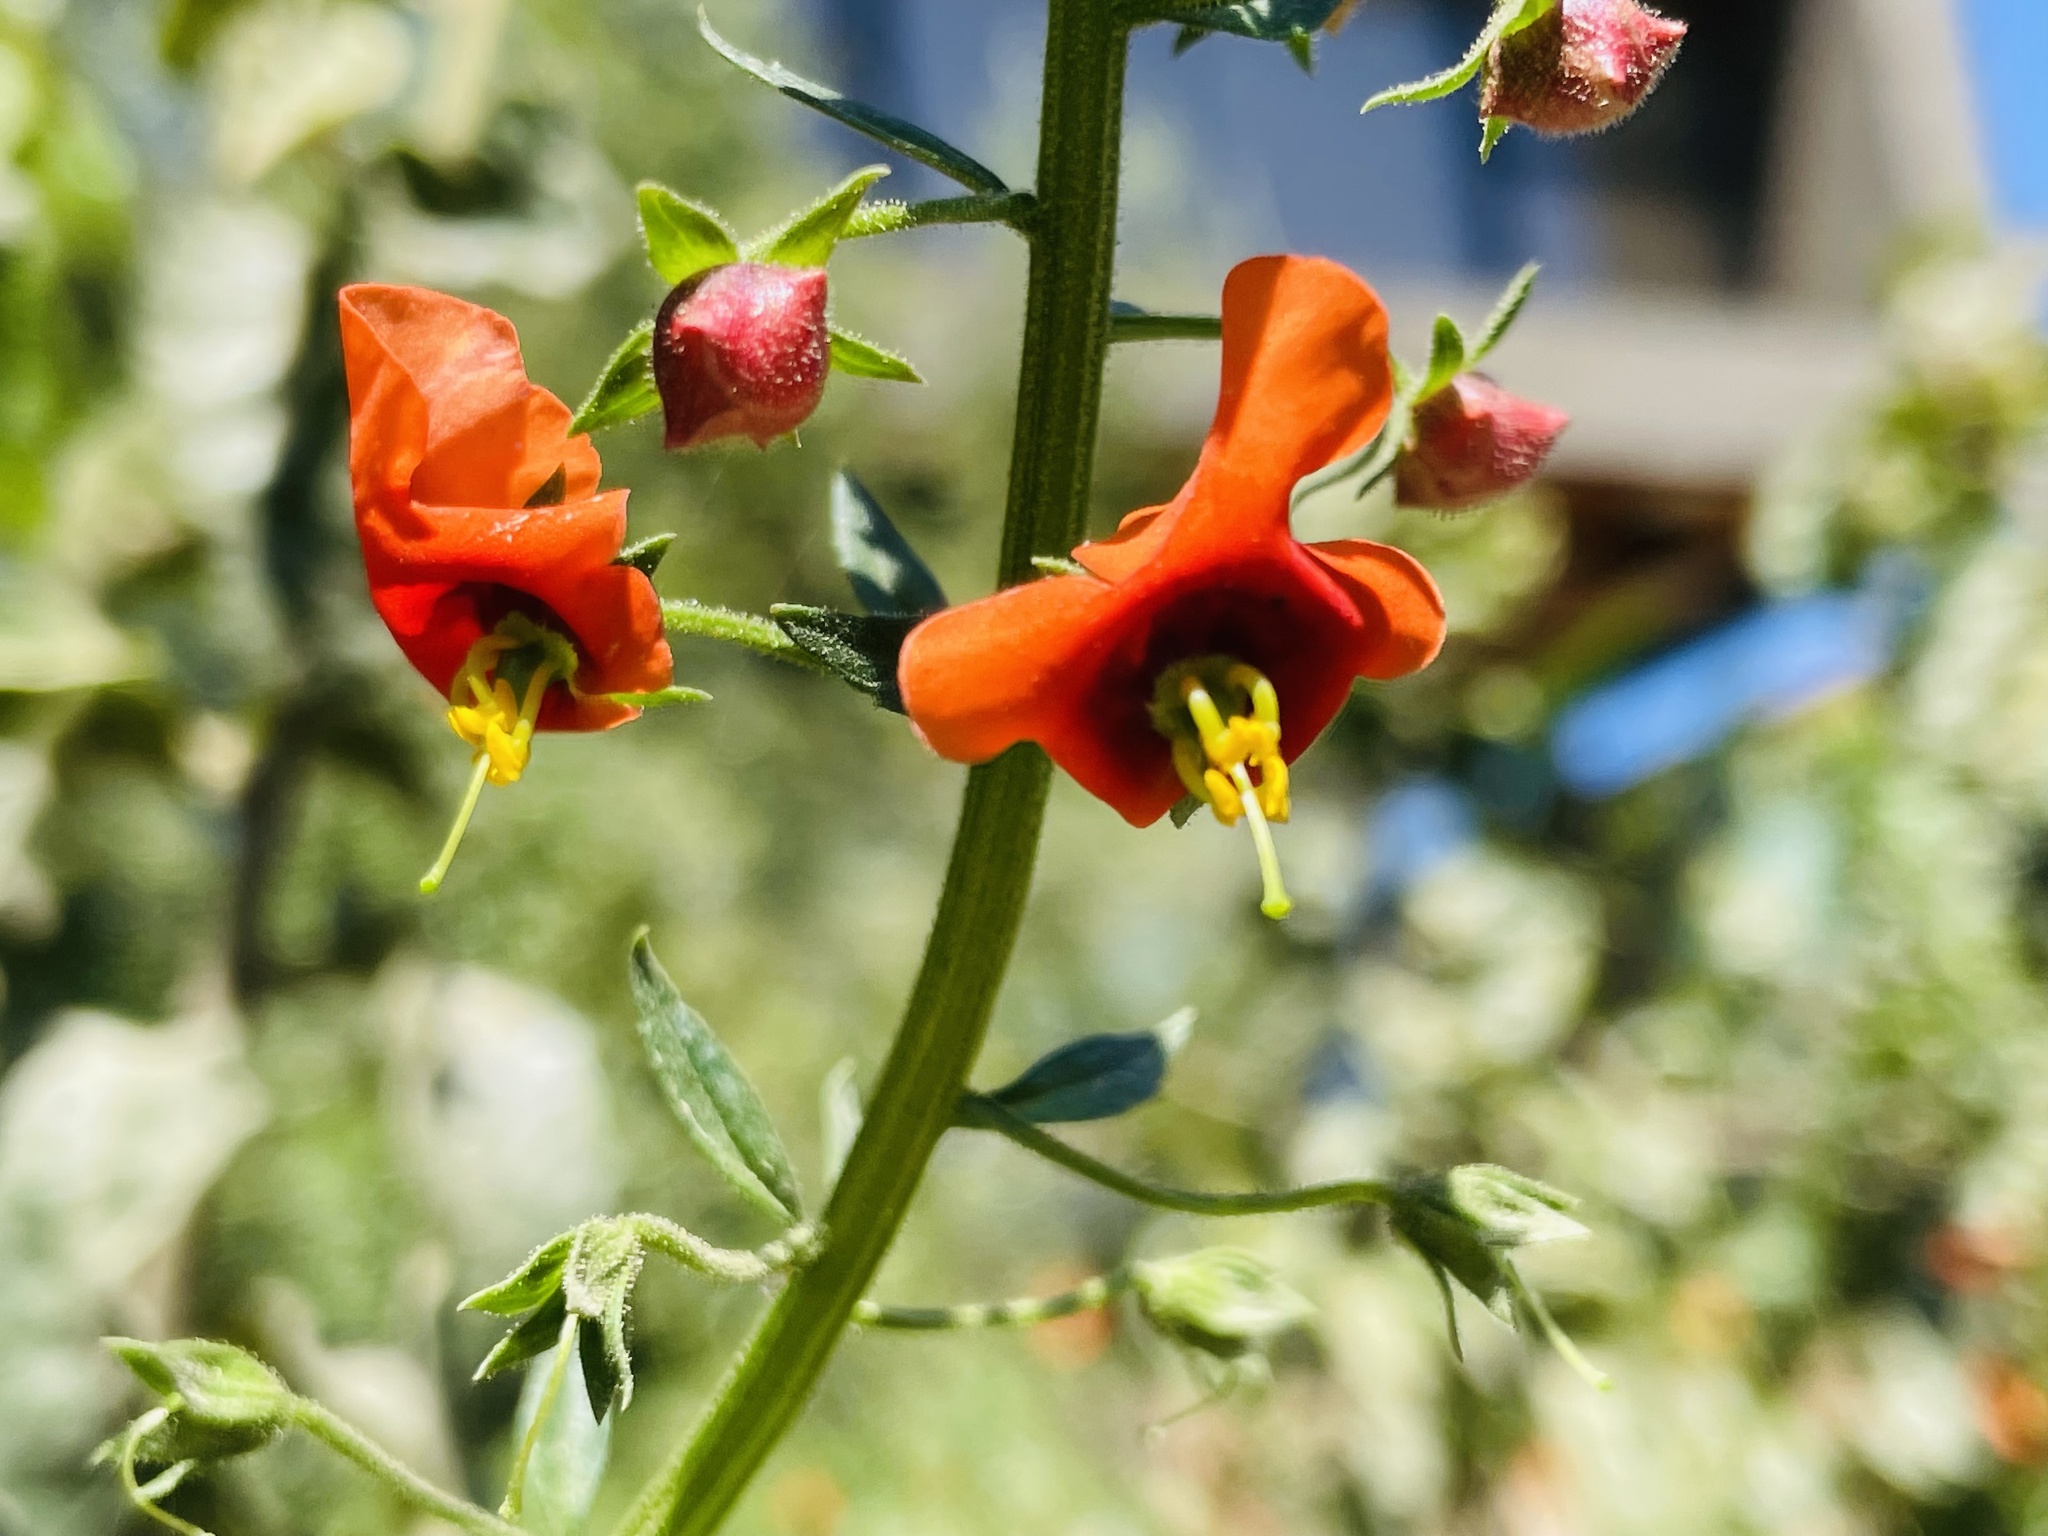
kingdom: Plantae
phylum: Tracheophyta
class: Magnoliopsida
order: Lamiales
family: Scrophulariaceae
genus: Alonsoa
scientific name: Alonsoa meridionalis
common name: Maskflower
